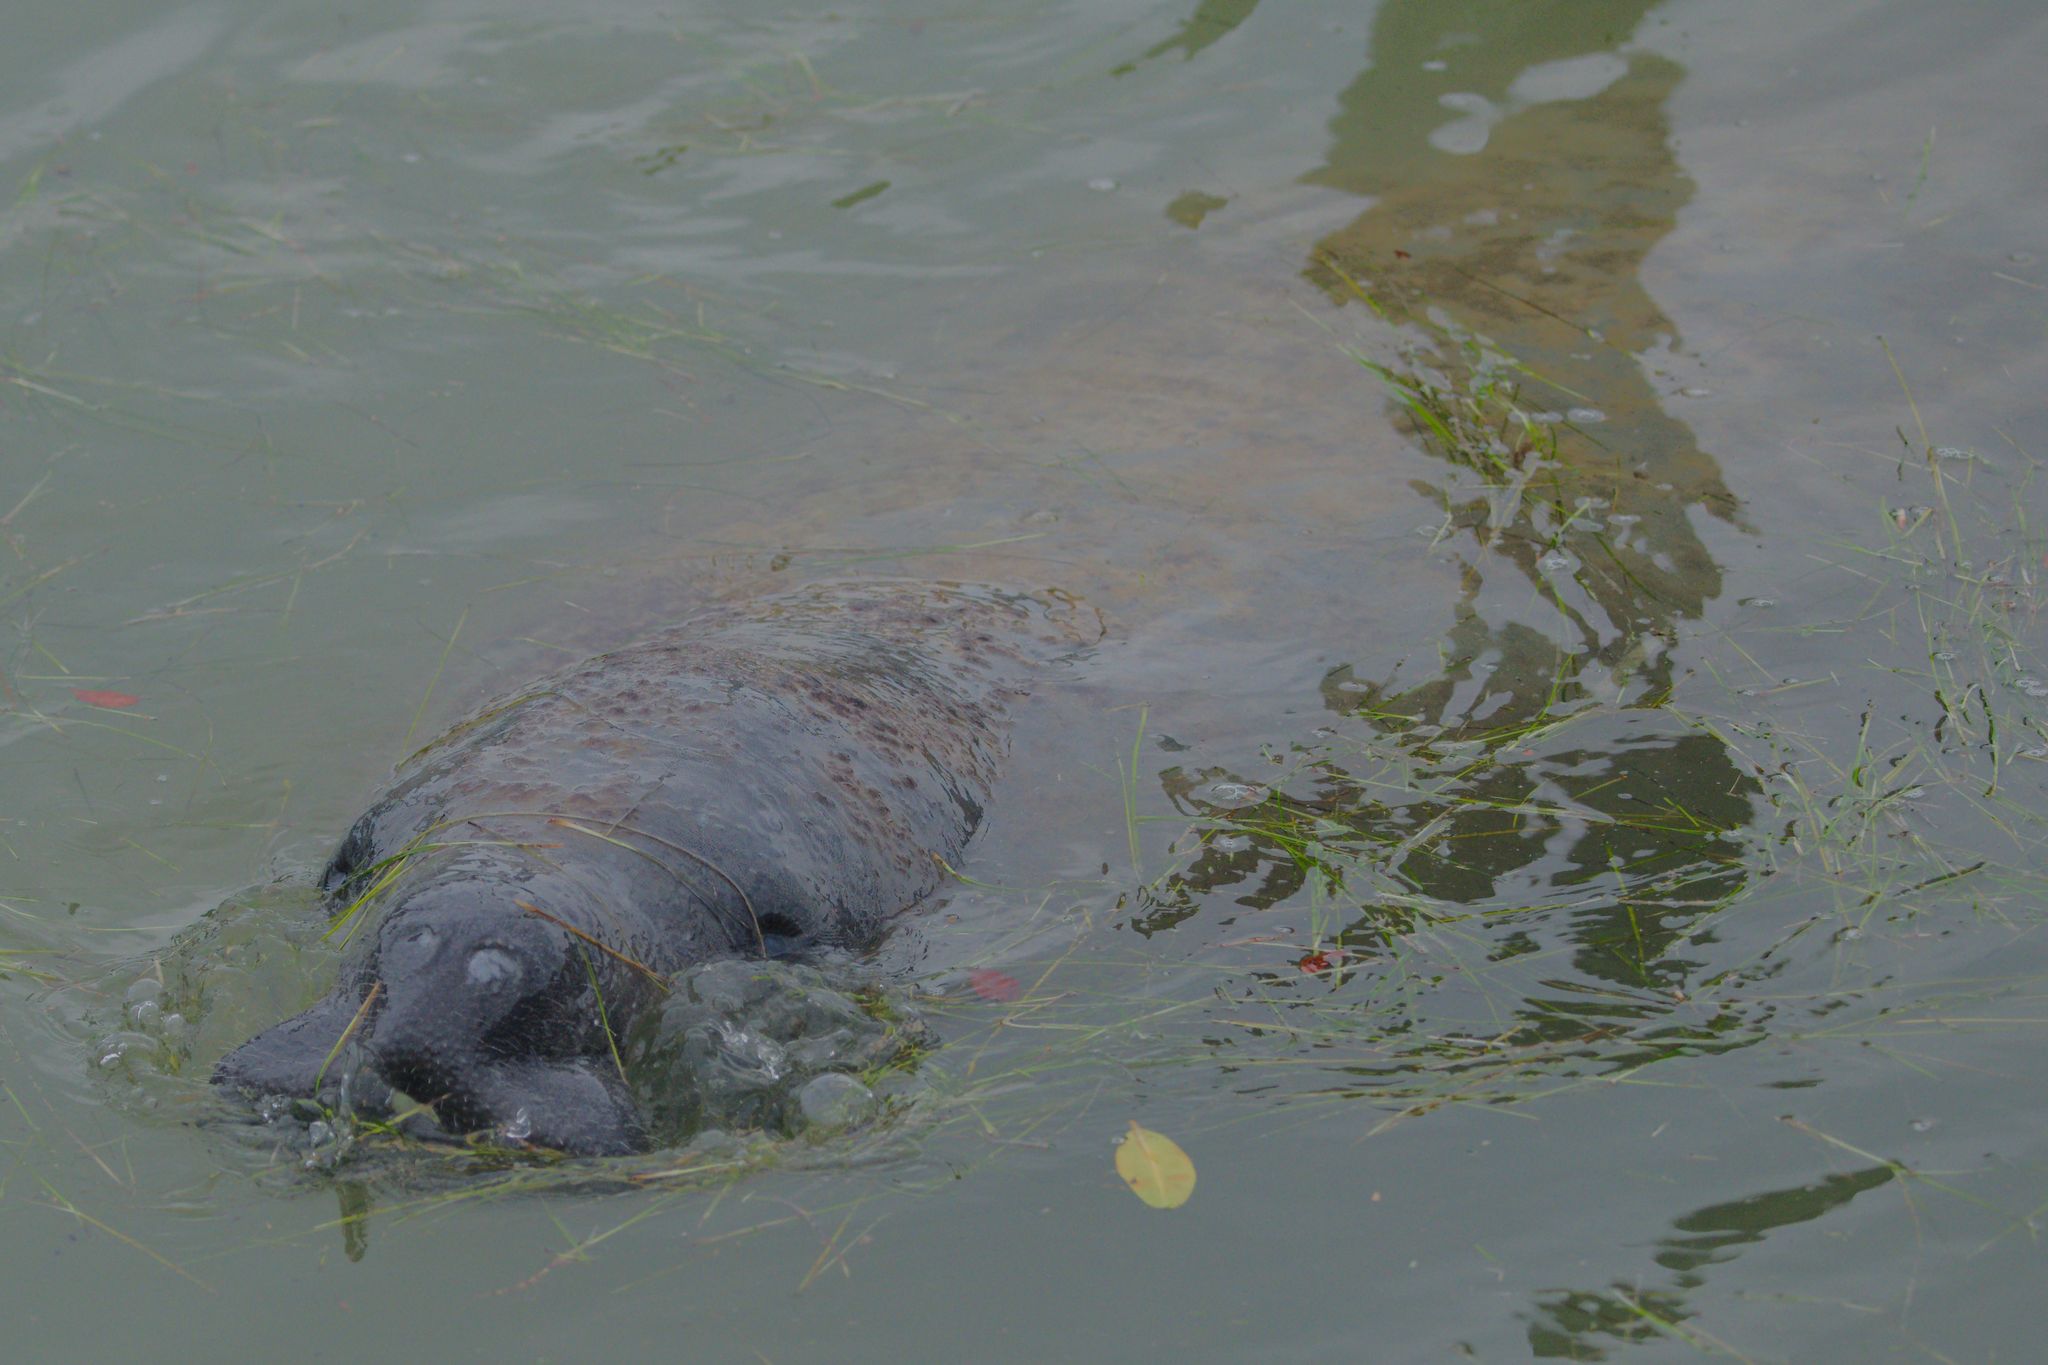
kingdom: Animalia
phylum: Chordata
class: Mammalia
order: Sirenia
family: Trichechidae
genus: Trichechus
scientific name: Trichechus manatus
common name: West indian manatee
